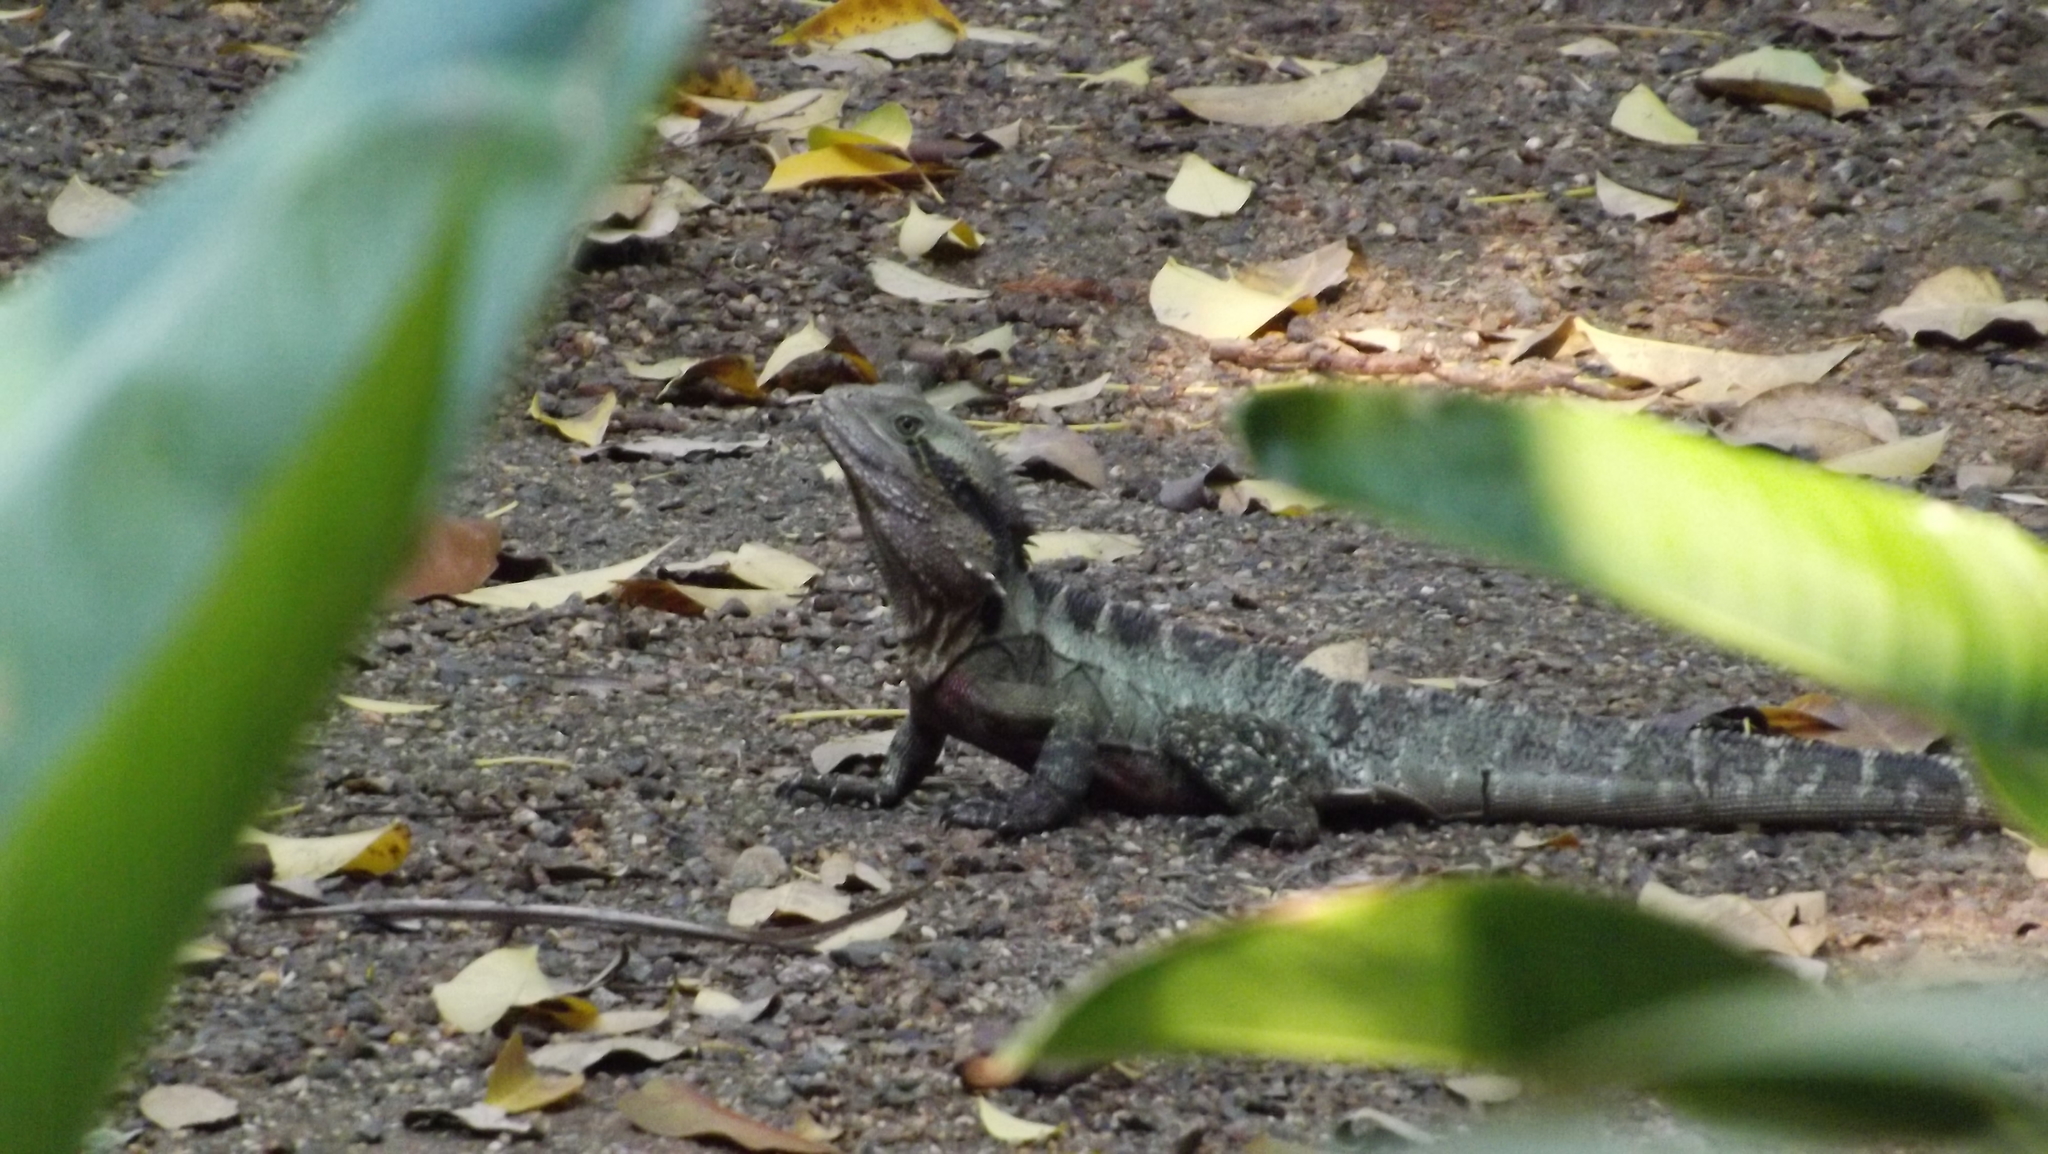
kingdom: Animalia
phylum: Chordata
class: Squamata
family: Agamidae
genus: Intellagama
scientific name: Intellagama lesueurii
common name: Eastern water dragon
